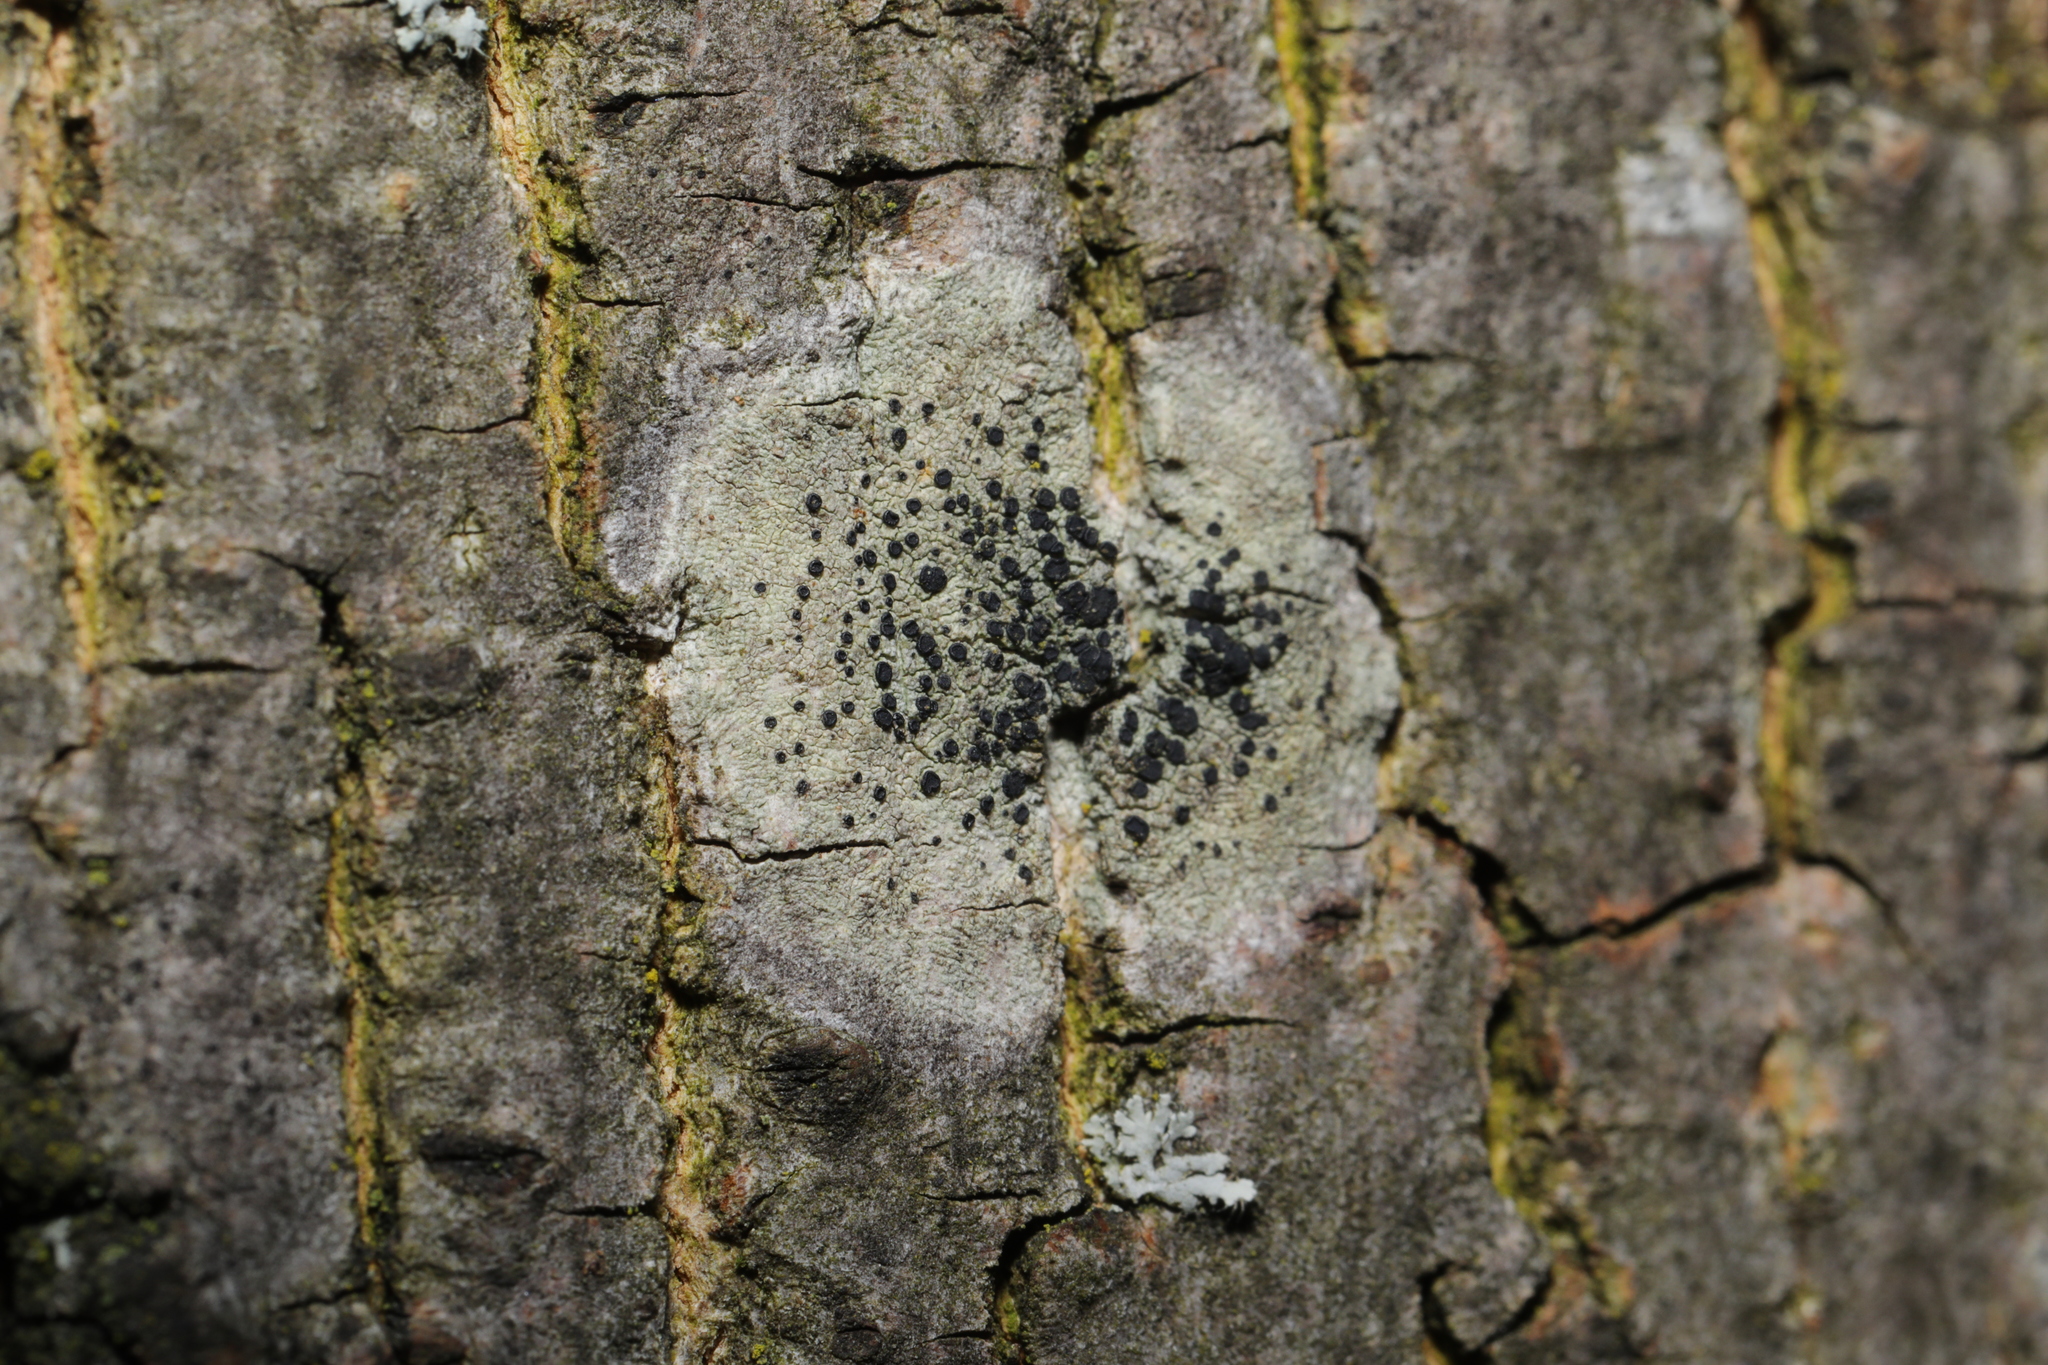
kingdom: Fungi
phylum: Ascomycota
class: Lecanoromycetes
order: Lecanorales
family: Lecanoraceae
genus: Lecidella
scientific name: Lecidella elaeochroma
